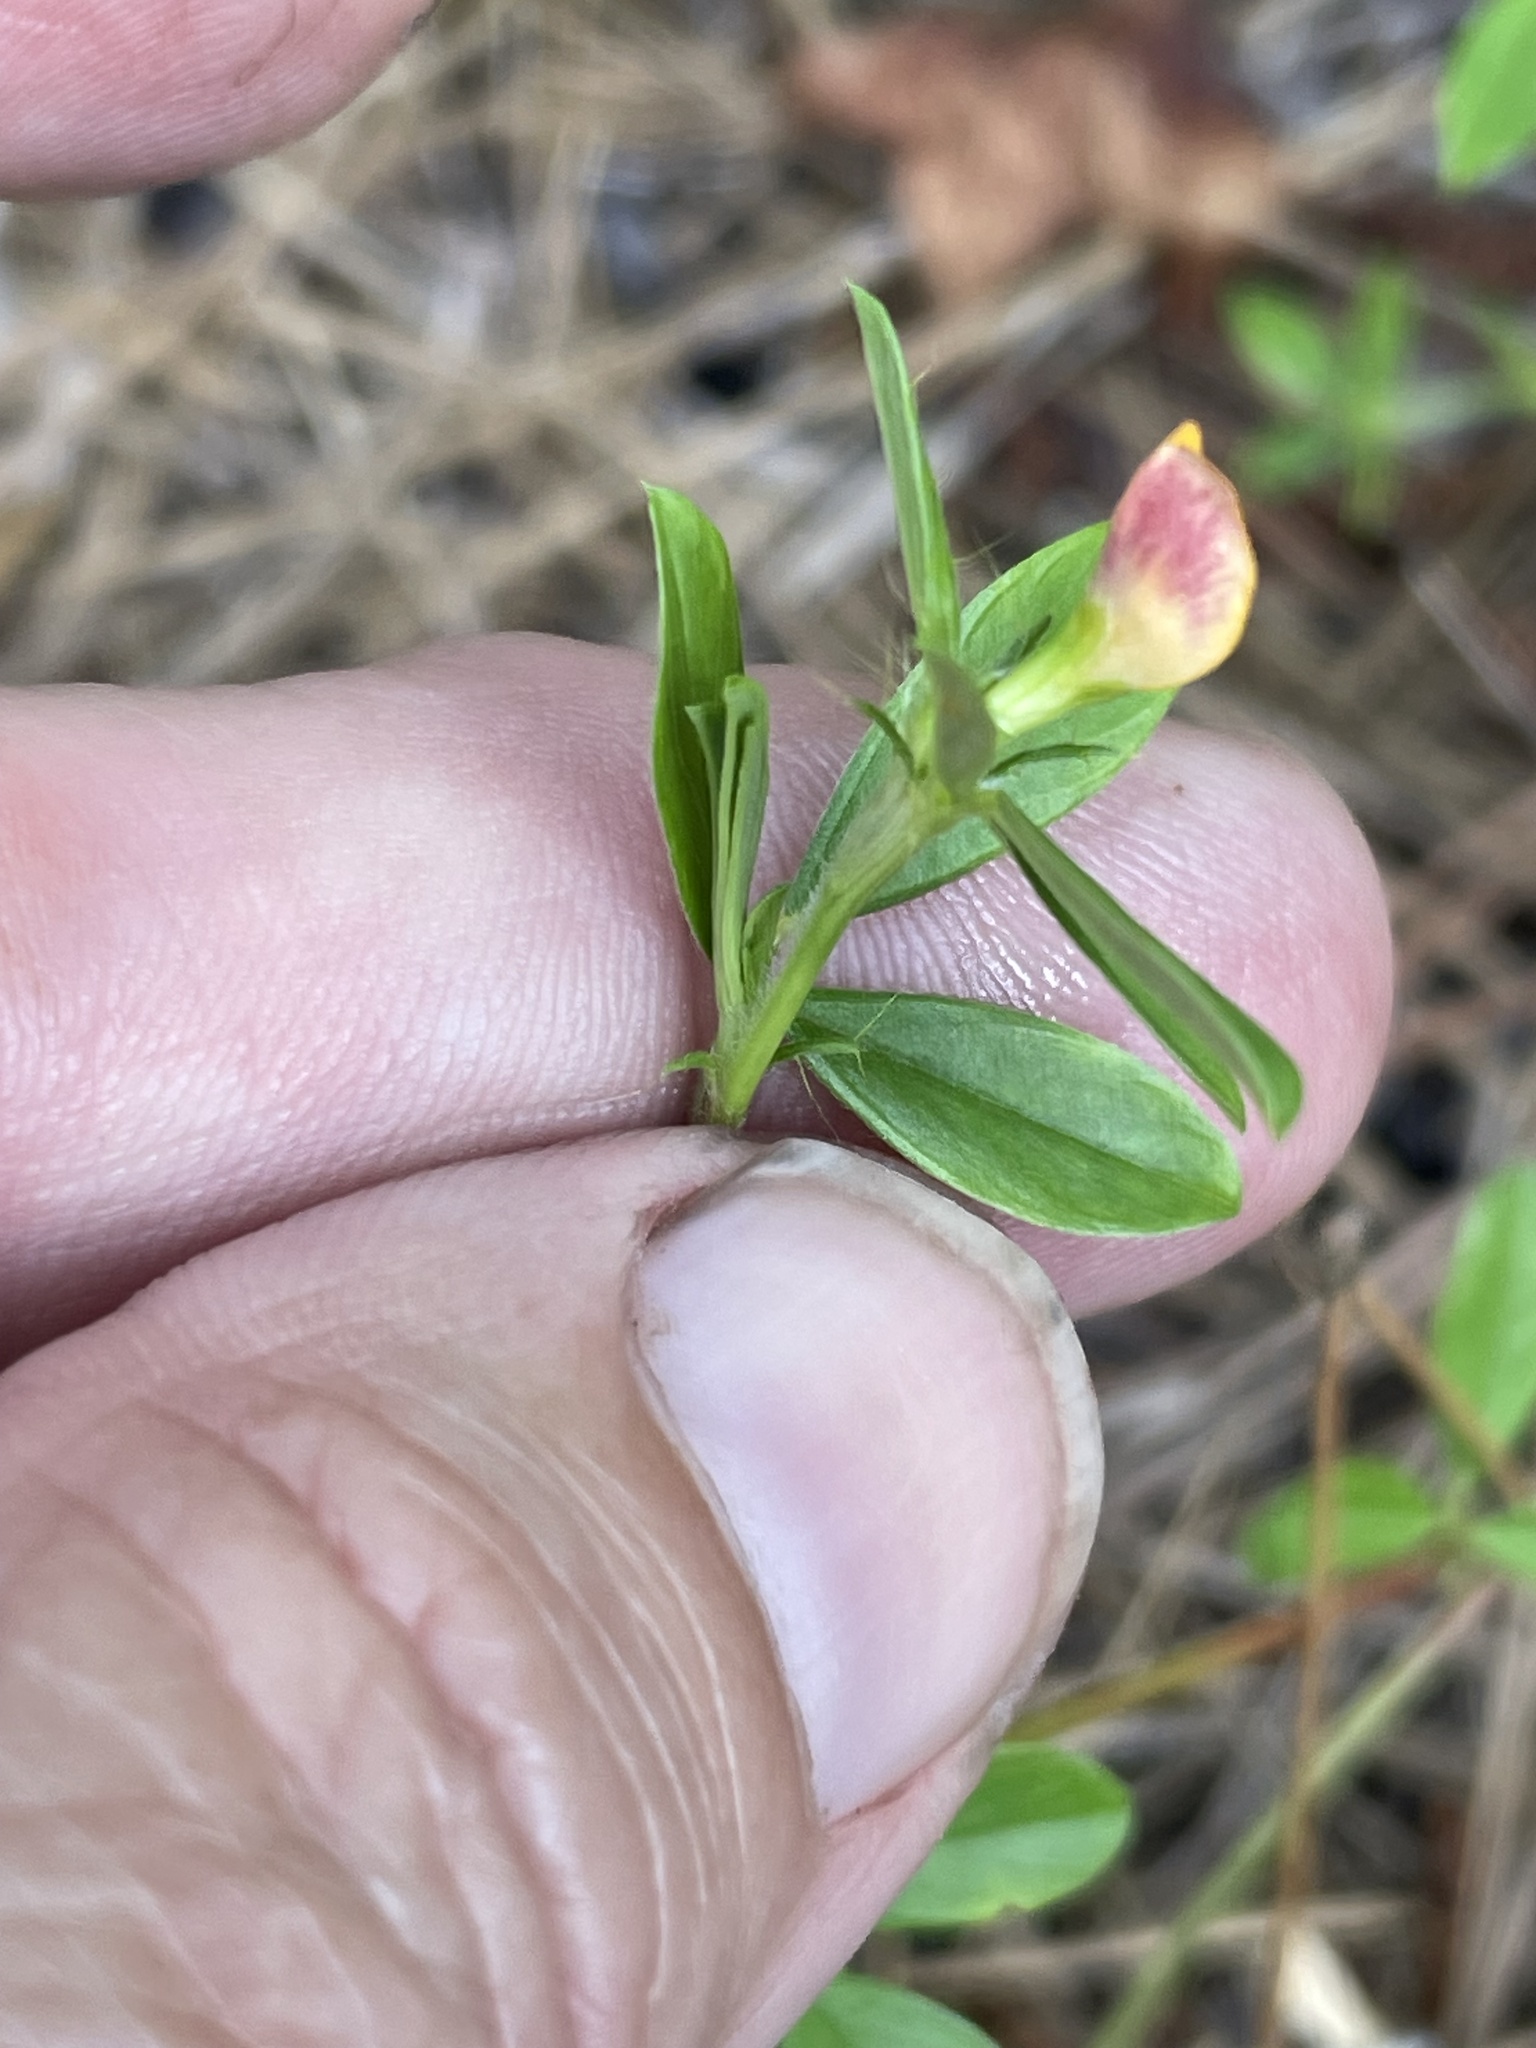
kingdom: Plantae
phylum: Tracheophyta
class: Magnoliopsida
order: Fabales
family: Fabaceae
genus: Stylosanthes
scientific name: Stylosanthes biflora
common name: Two-flower pencil-flower
